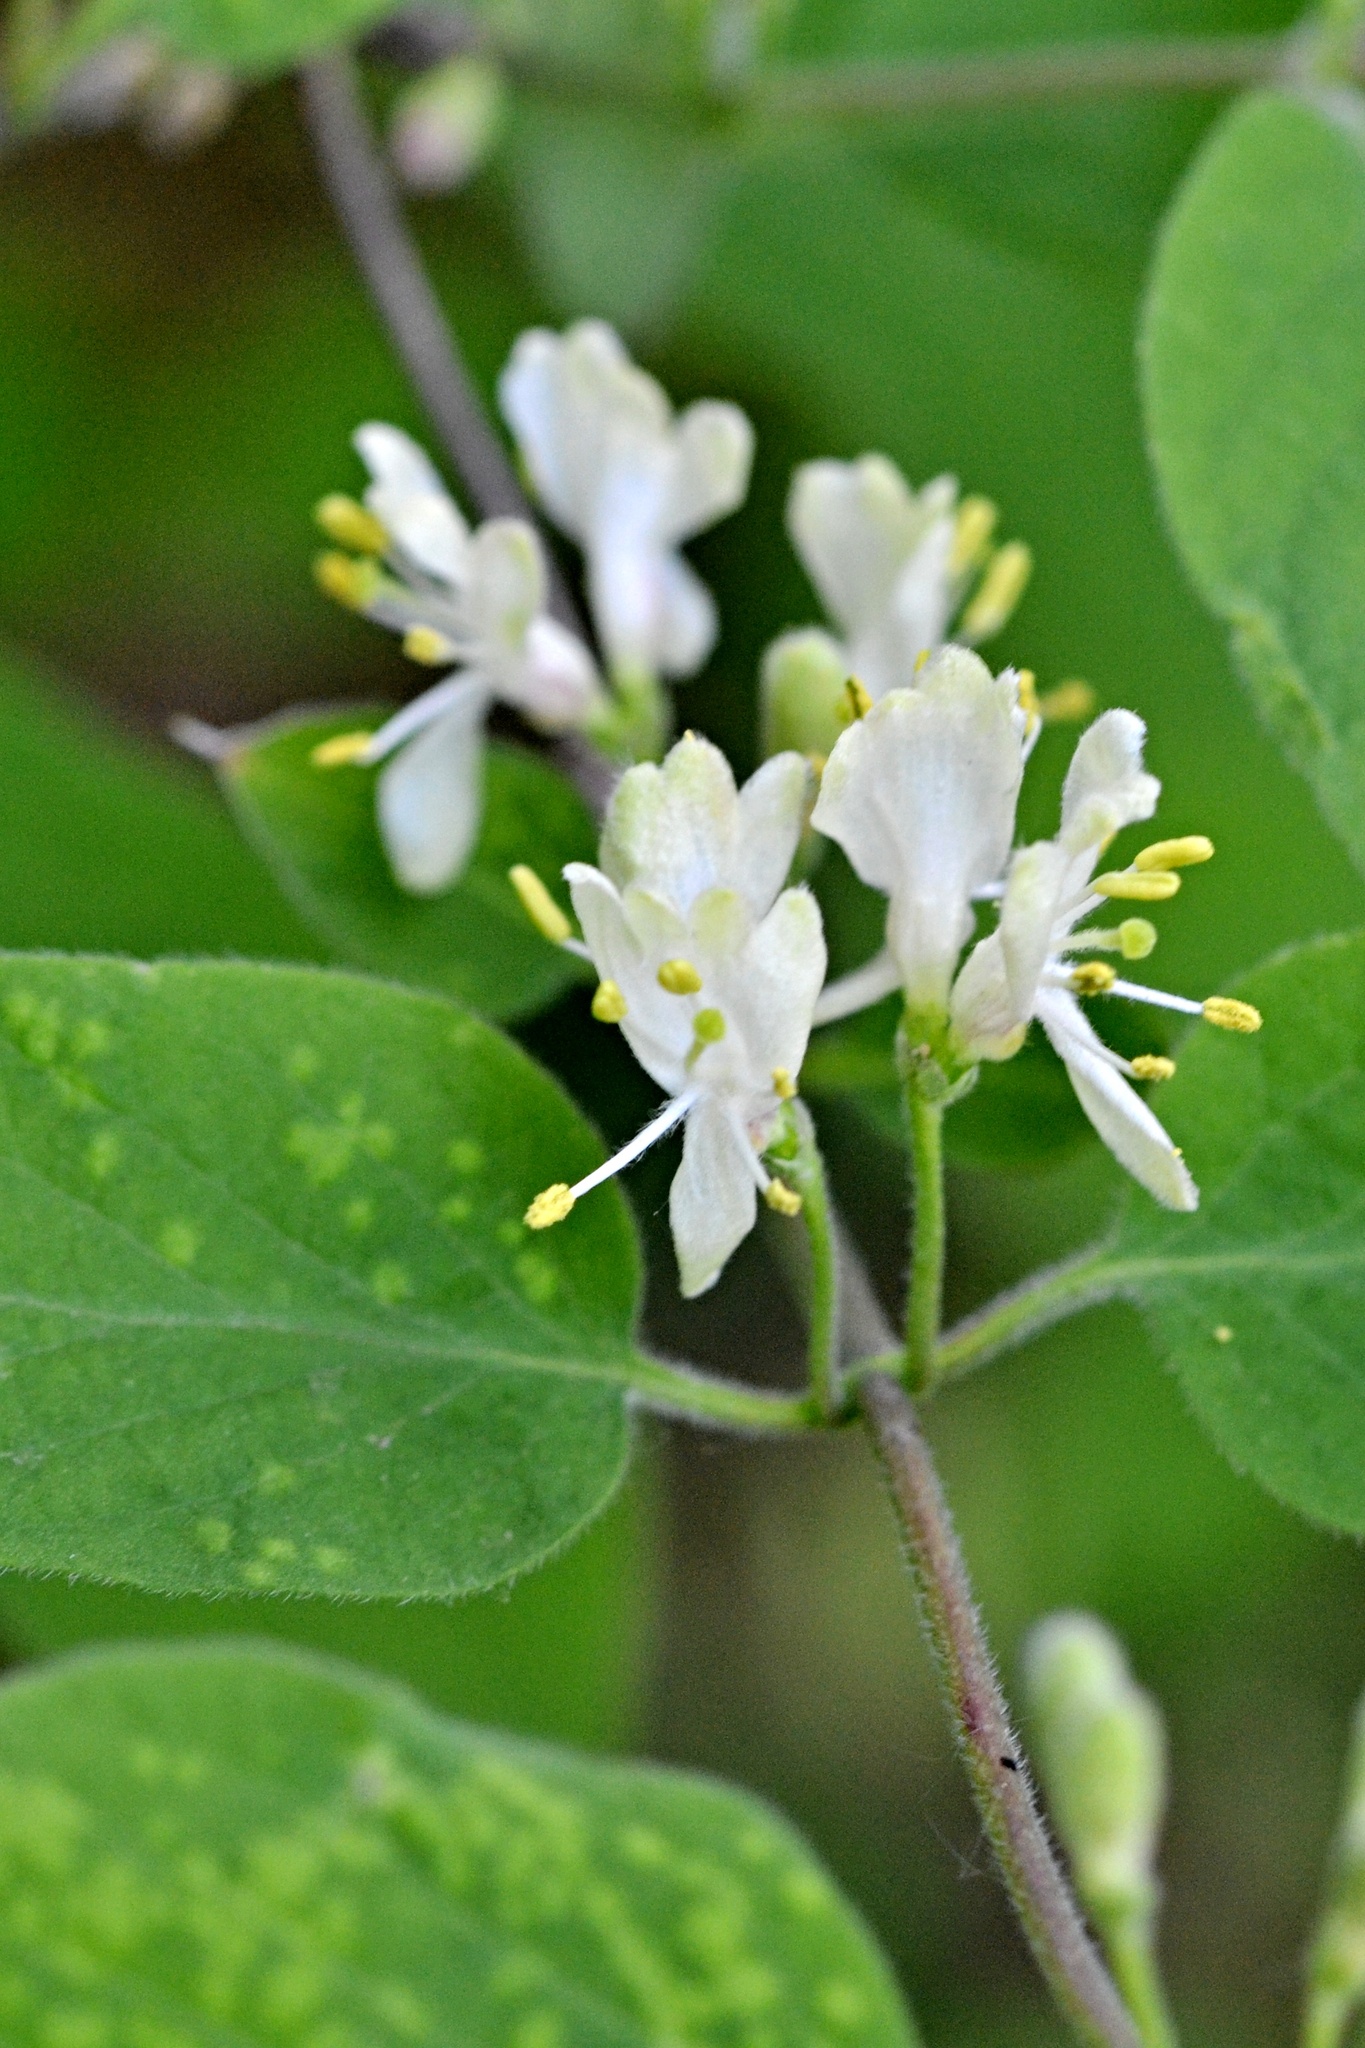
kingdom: Plantae
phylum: Tracheophyta
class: Magnoliopsida
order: Dipsacales
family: Caprifoliaceae
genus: Lonicera
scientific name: Lonicera xylosteum
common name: Fly honeysuckle
